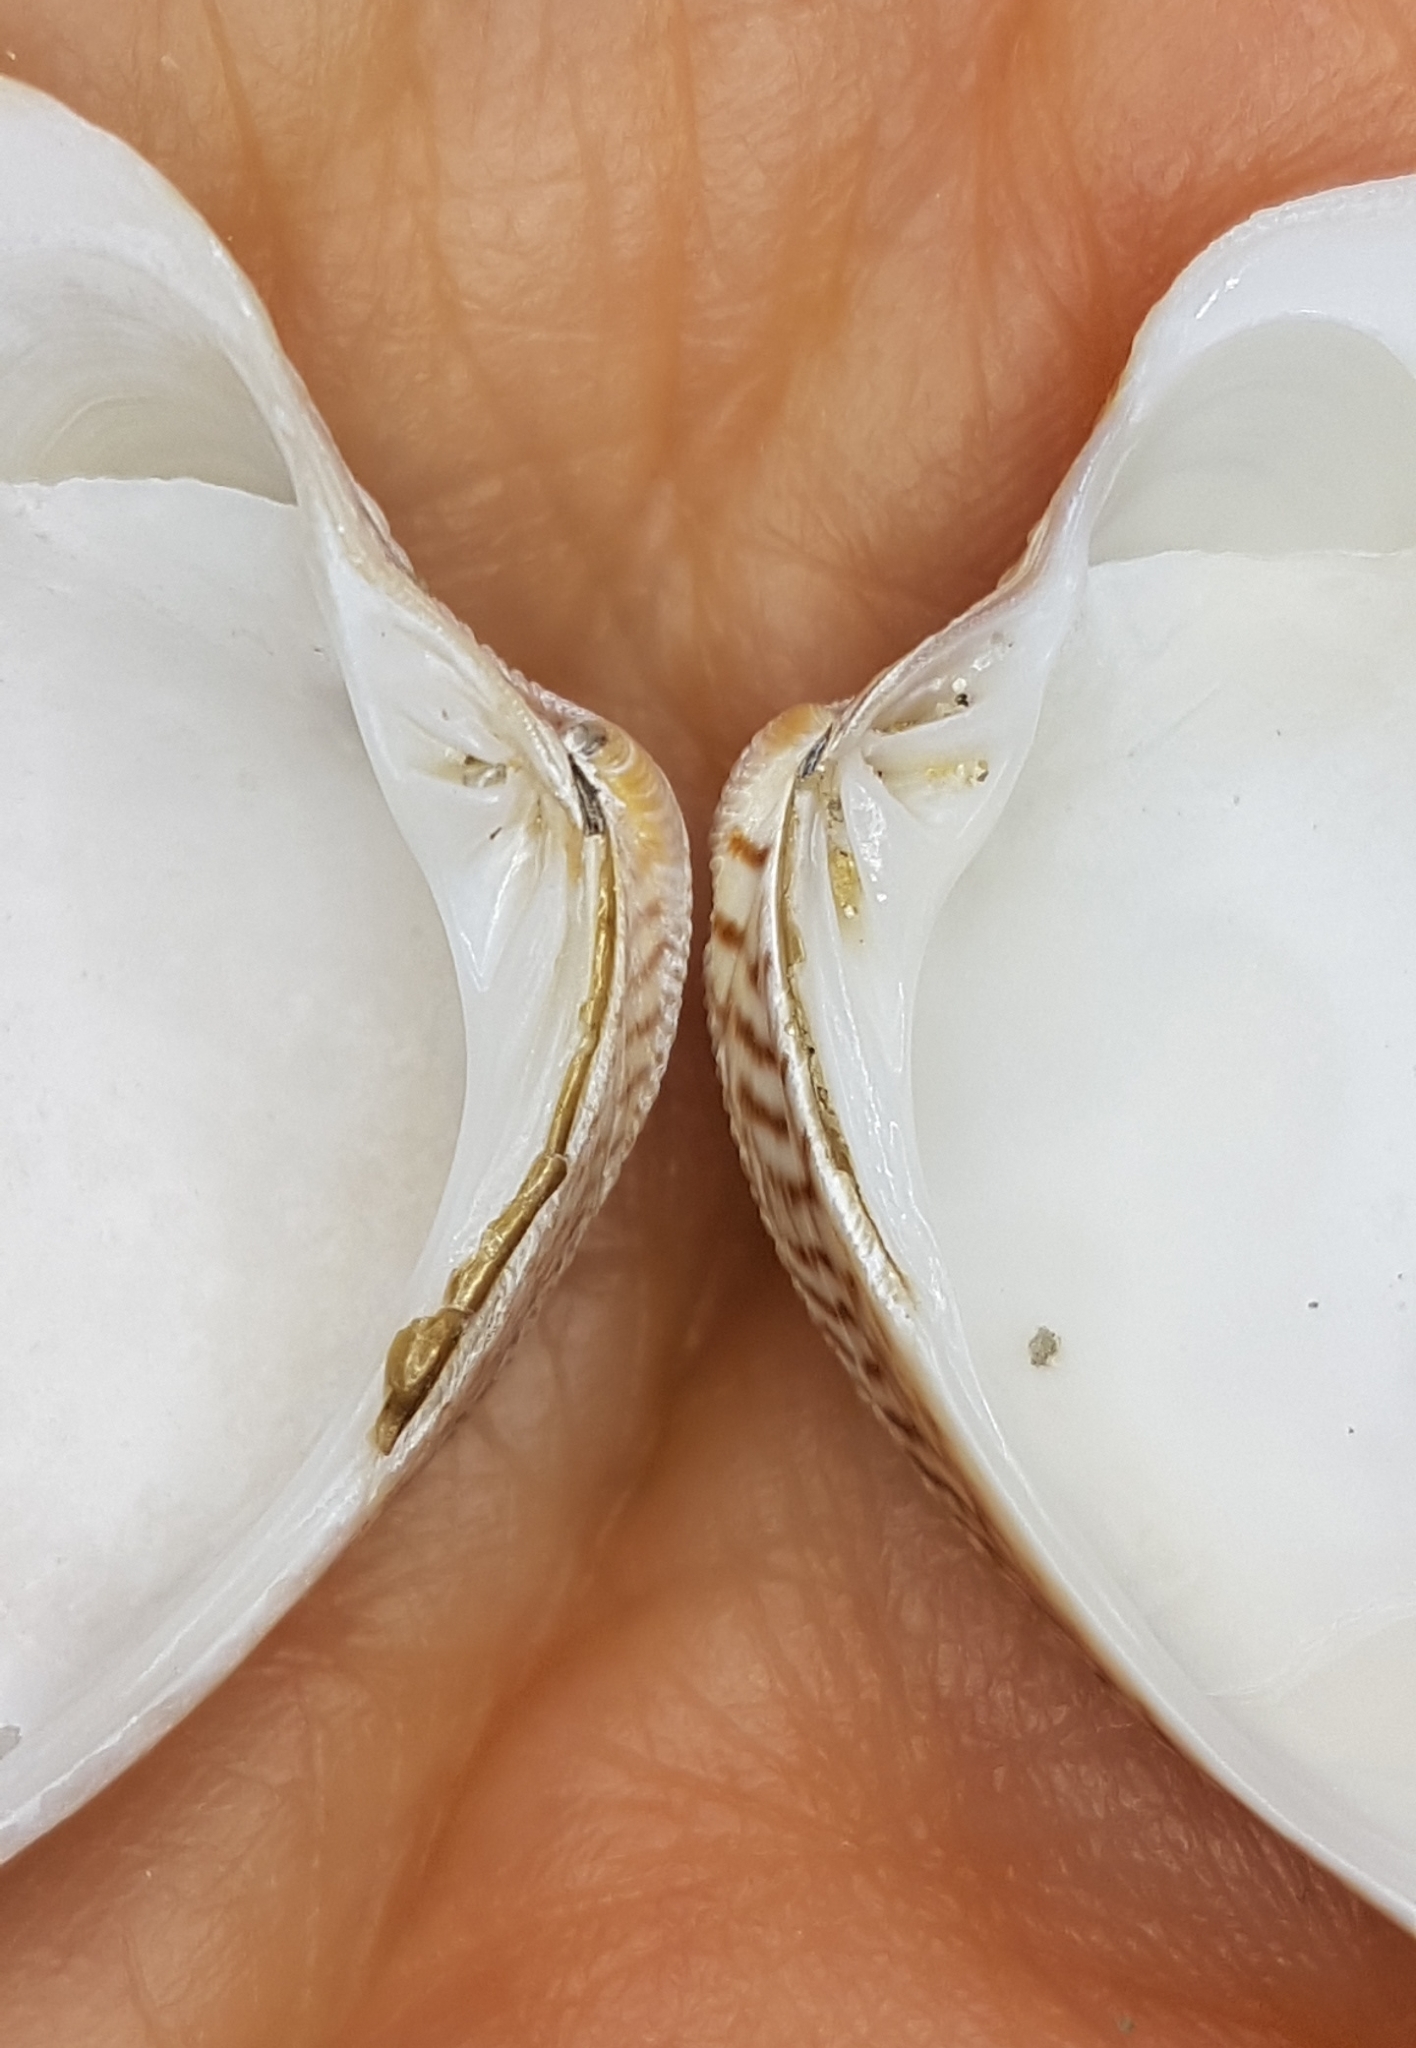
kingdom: Animalia
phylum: Mollusca
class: Bivalvia
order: Venerida
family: Veneridae
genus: Chamelea
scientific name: Chamelea striatula
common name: Striped venus
